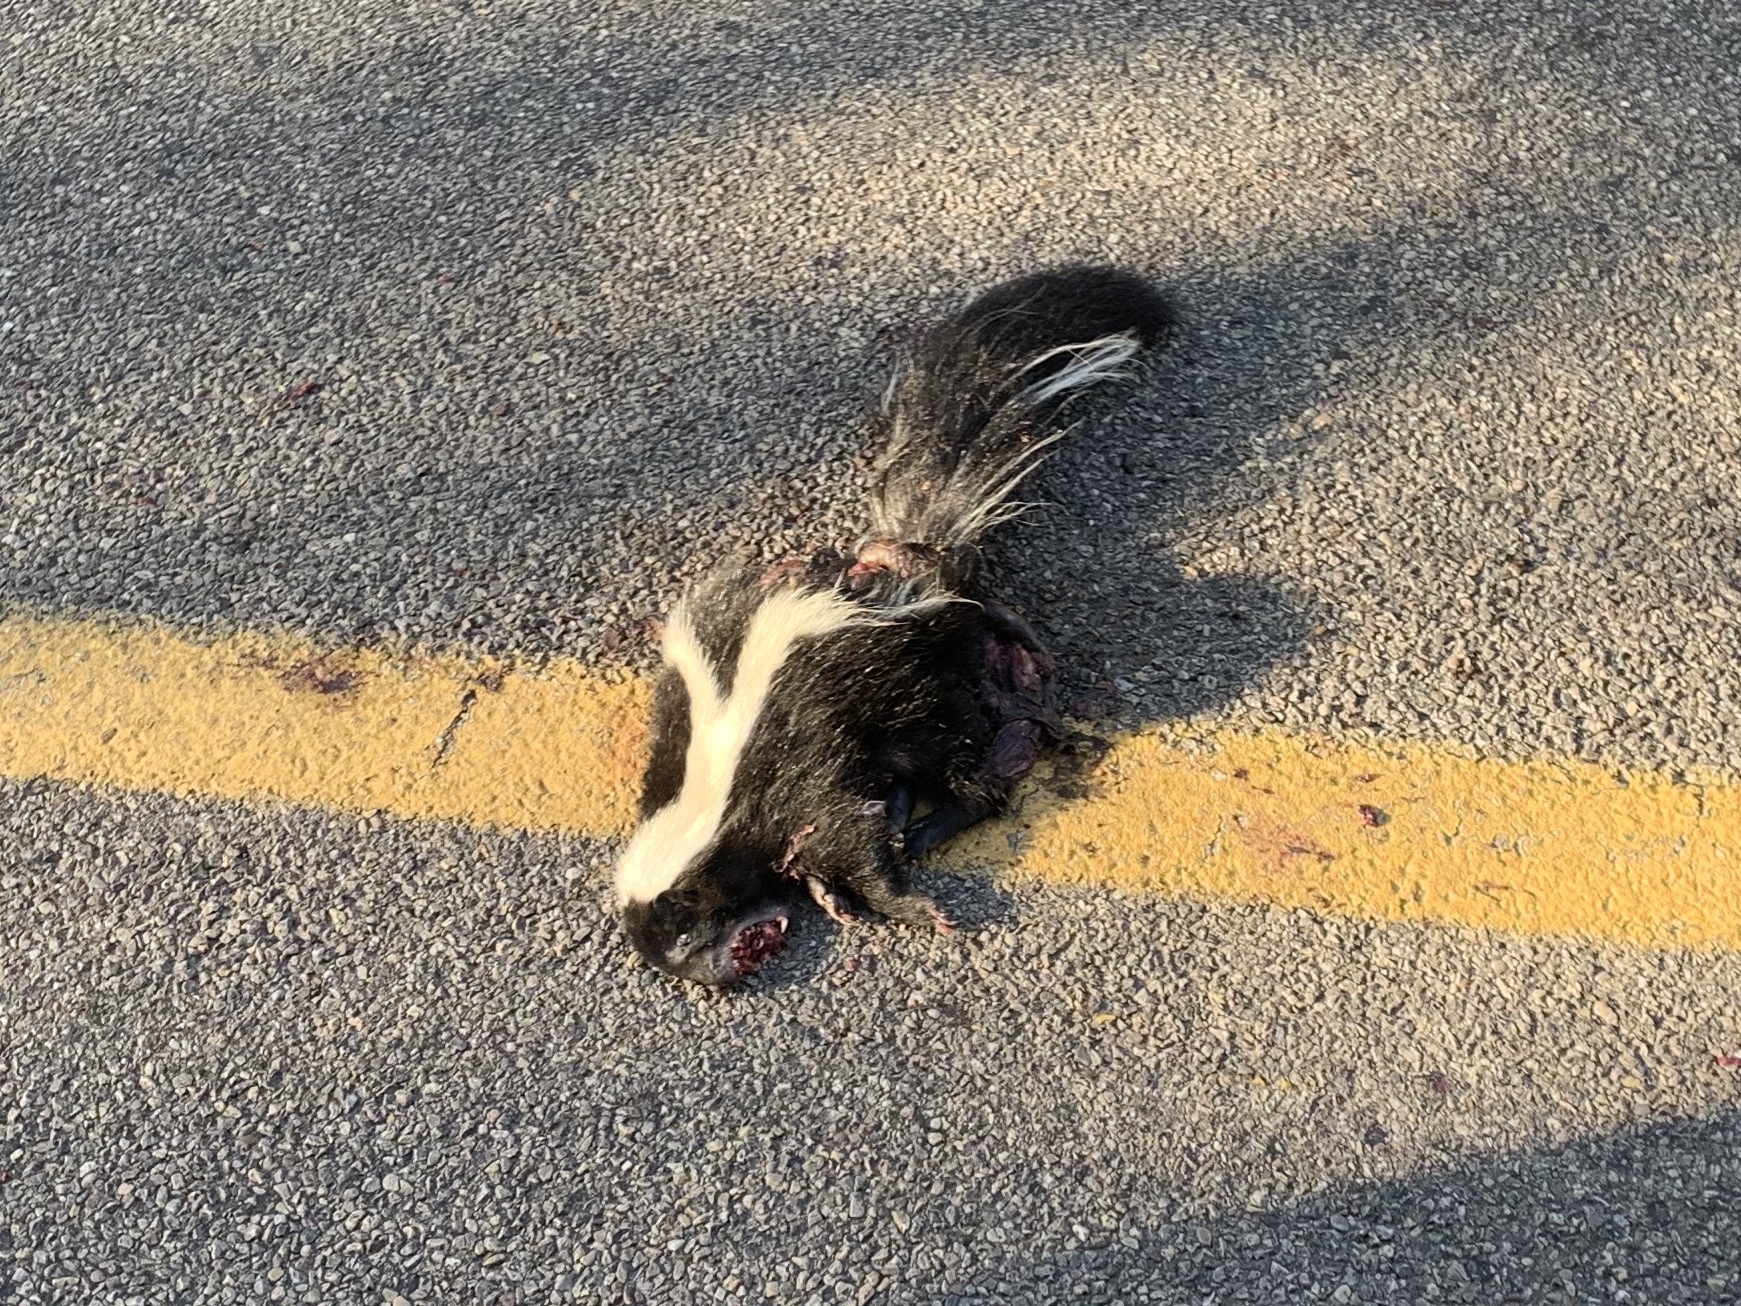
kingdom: Animalia
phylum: Chordata
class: Mammalia
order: Carnivora
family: Mephitidae
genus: Mephitis
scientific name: Mephitis mephitis
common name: Striped skunk
